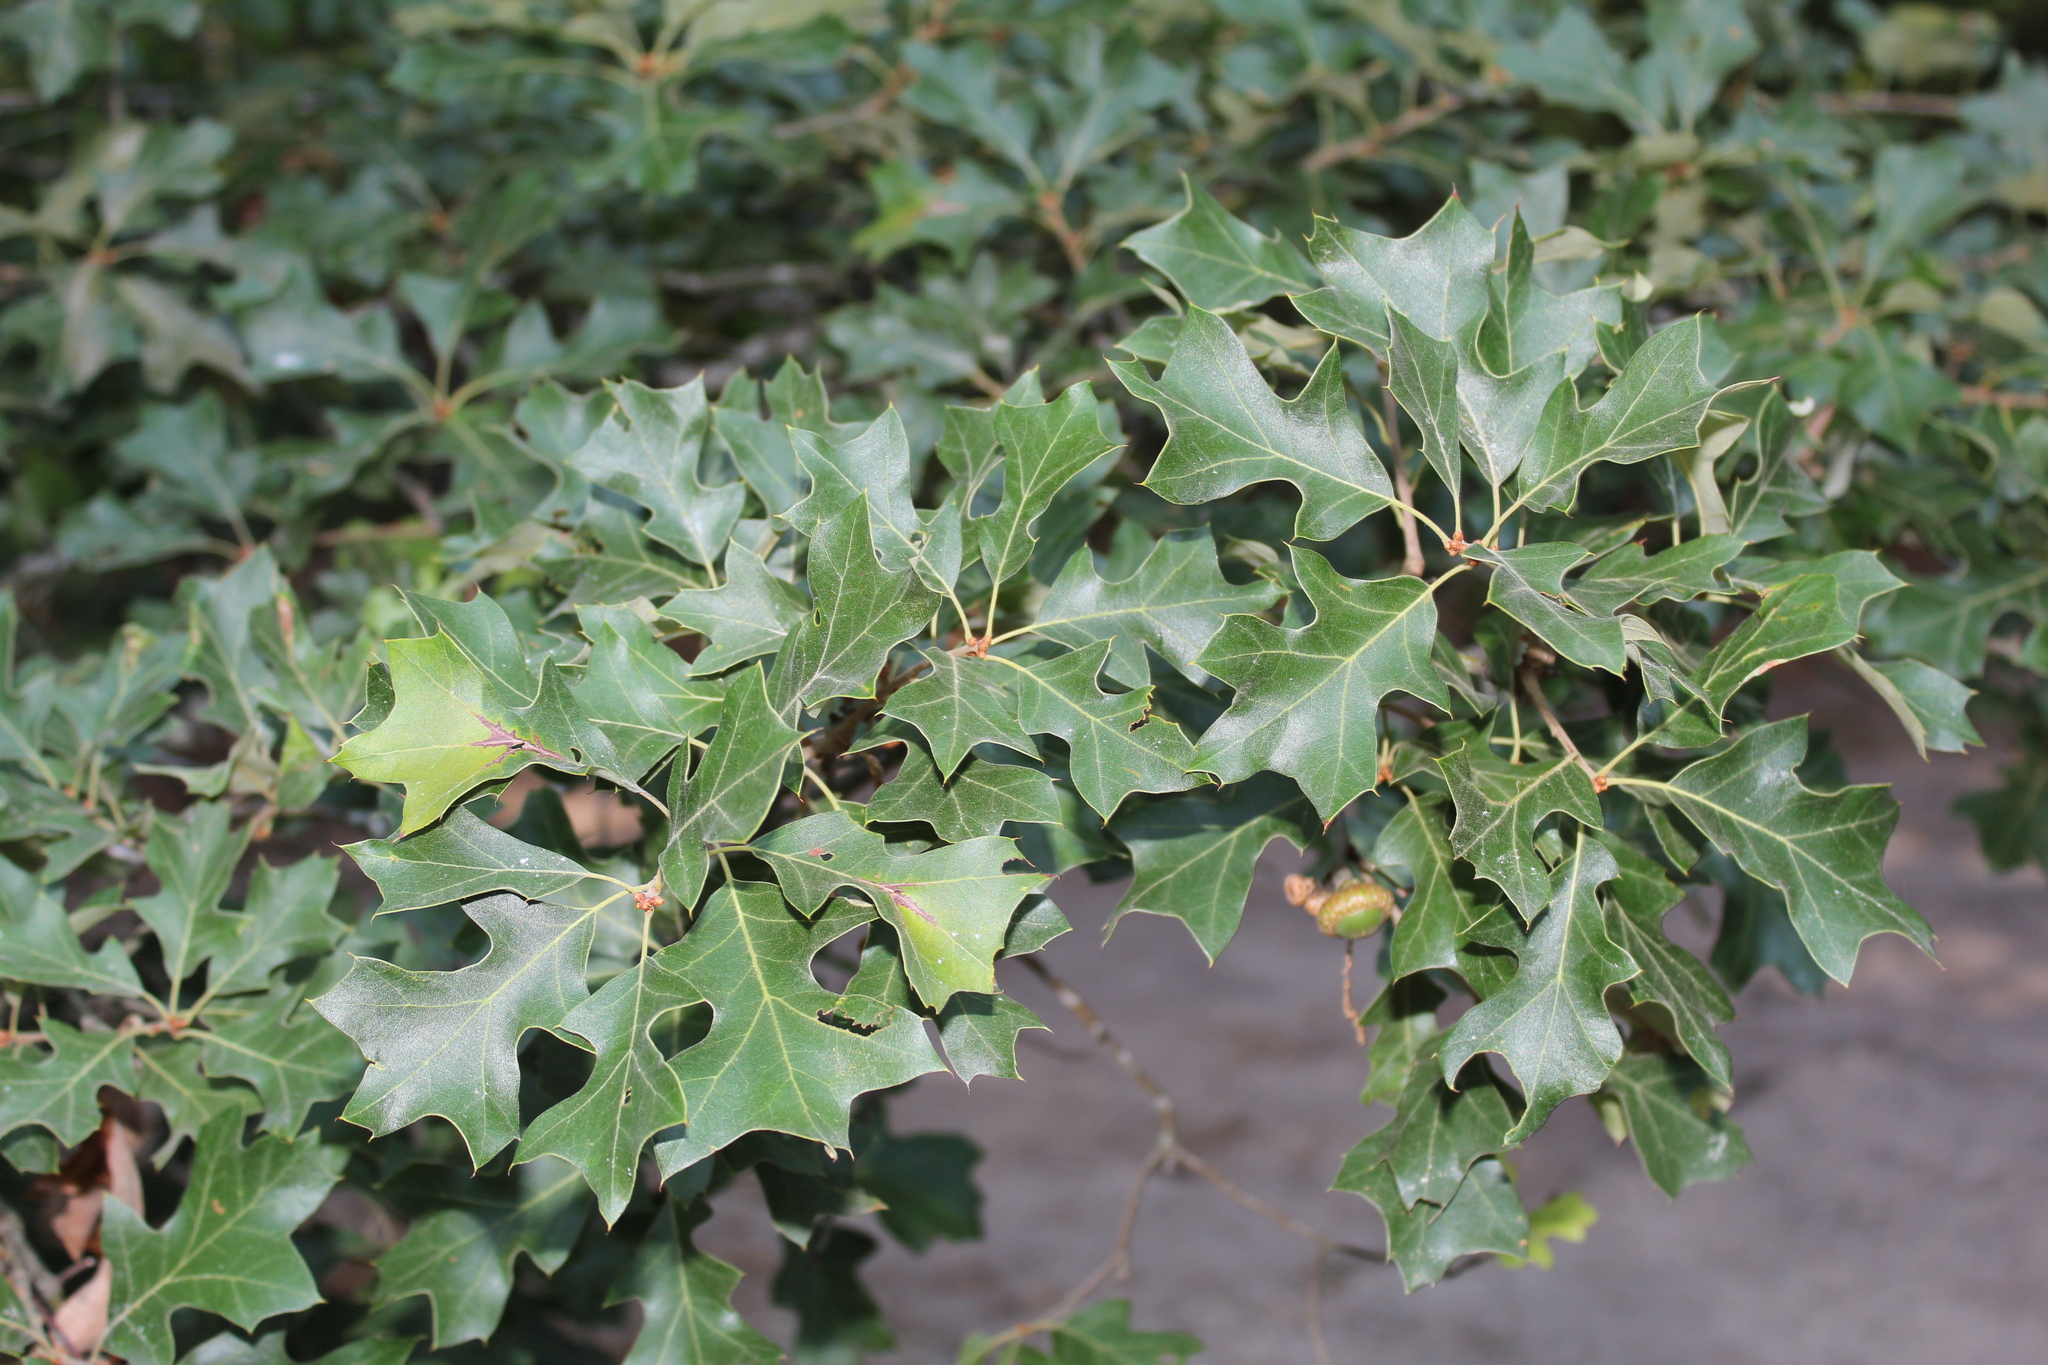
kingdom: Plantae
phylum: Tracheophyta
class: Magnoliopsida
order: Fagales
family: Fagaceae
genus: Quercus
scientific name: Quercus ilicifolia
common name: Bear oak
